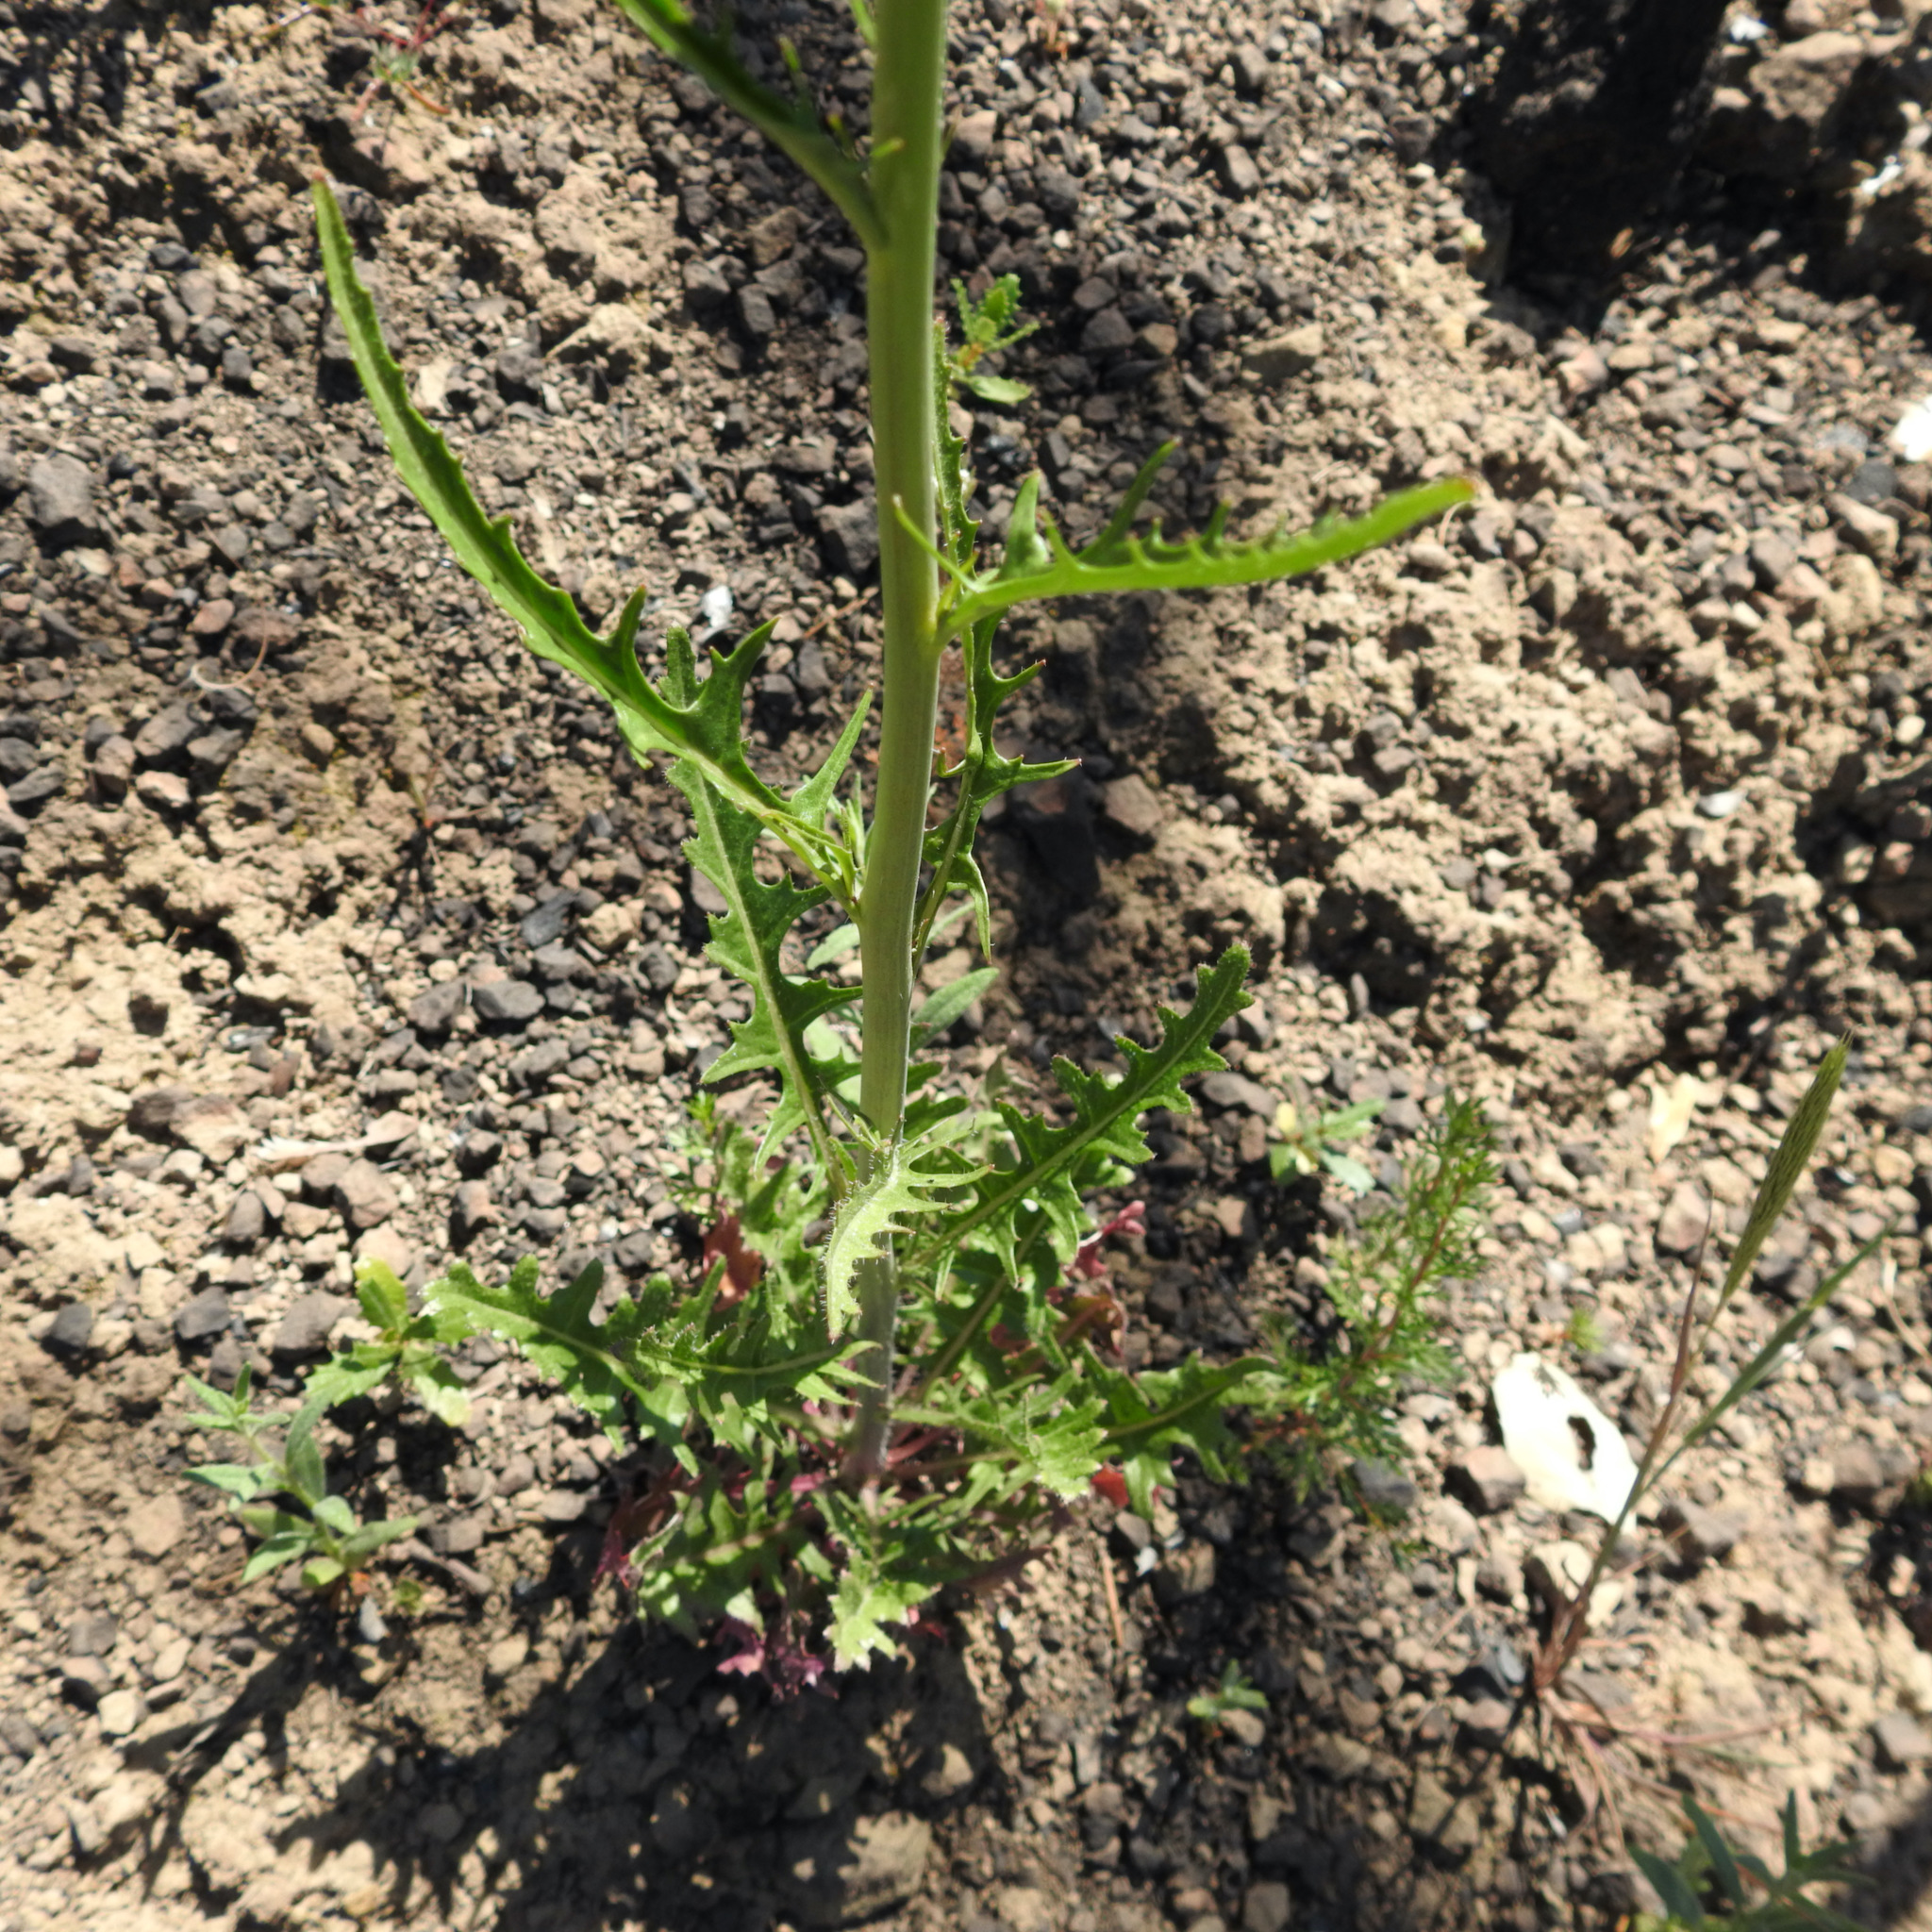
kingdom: Plantae
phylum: Tracheophyta
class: Magnoliopsida
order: Brassicales
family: Brassicaceae
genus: Streptanthus
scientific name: Streptanthus lasiophyllus
